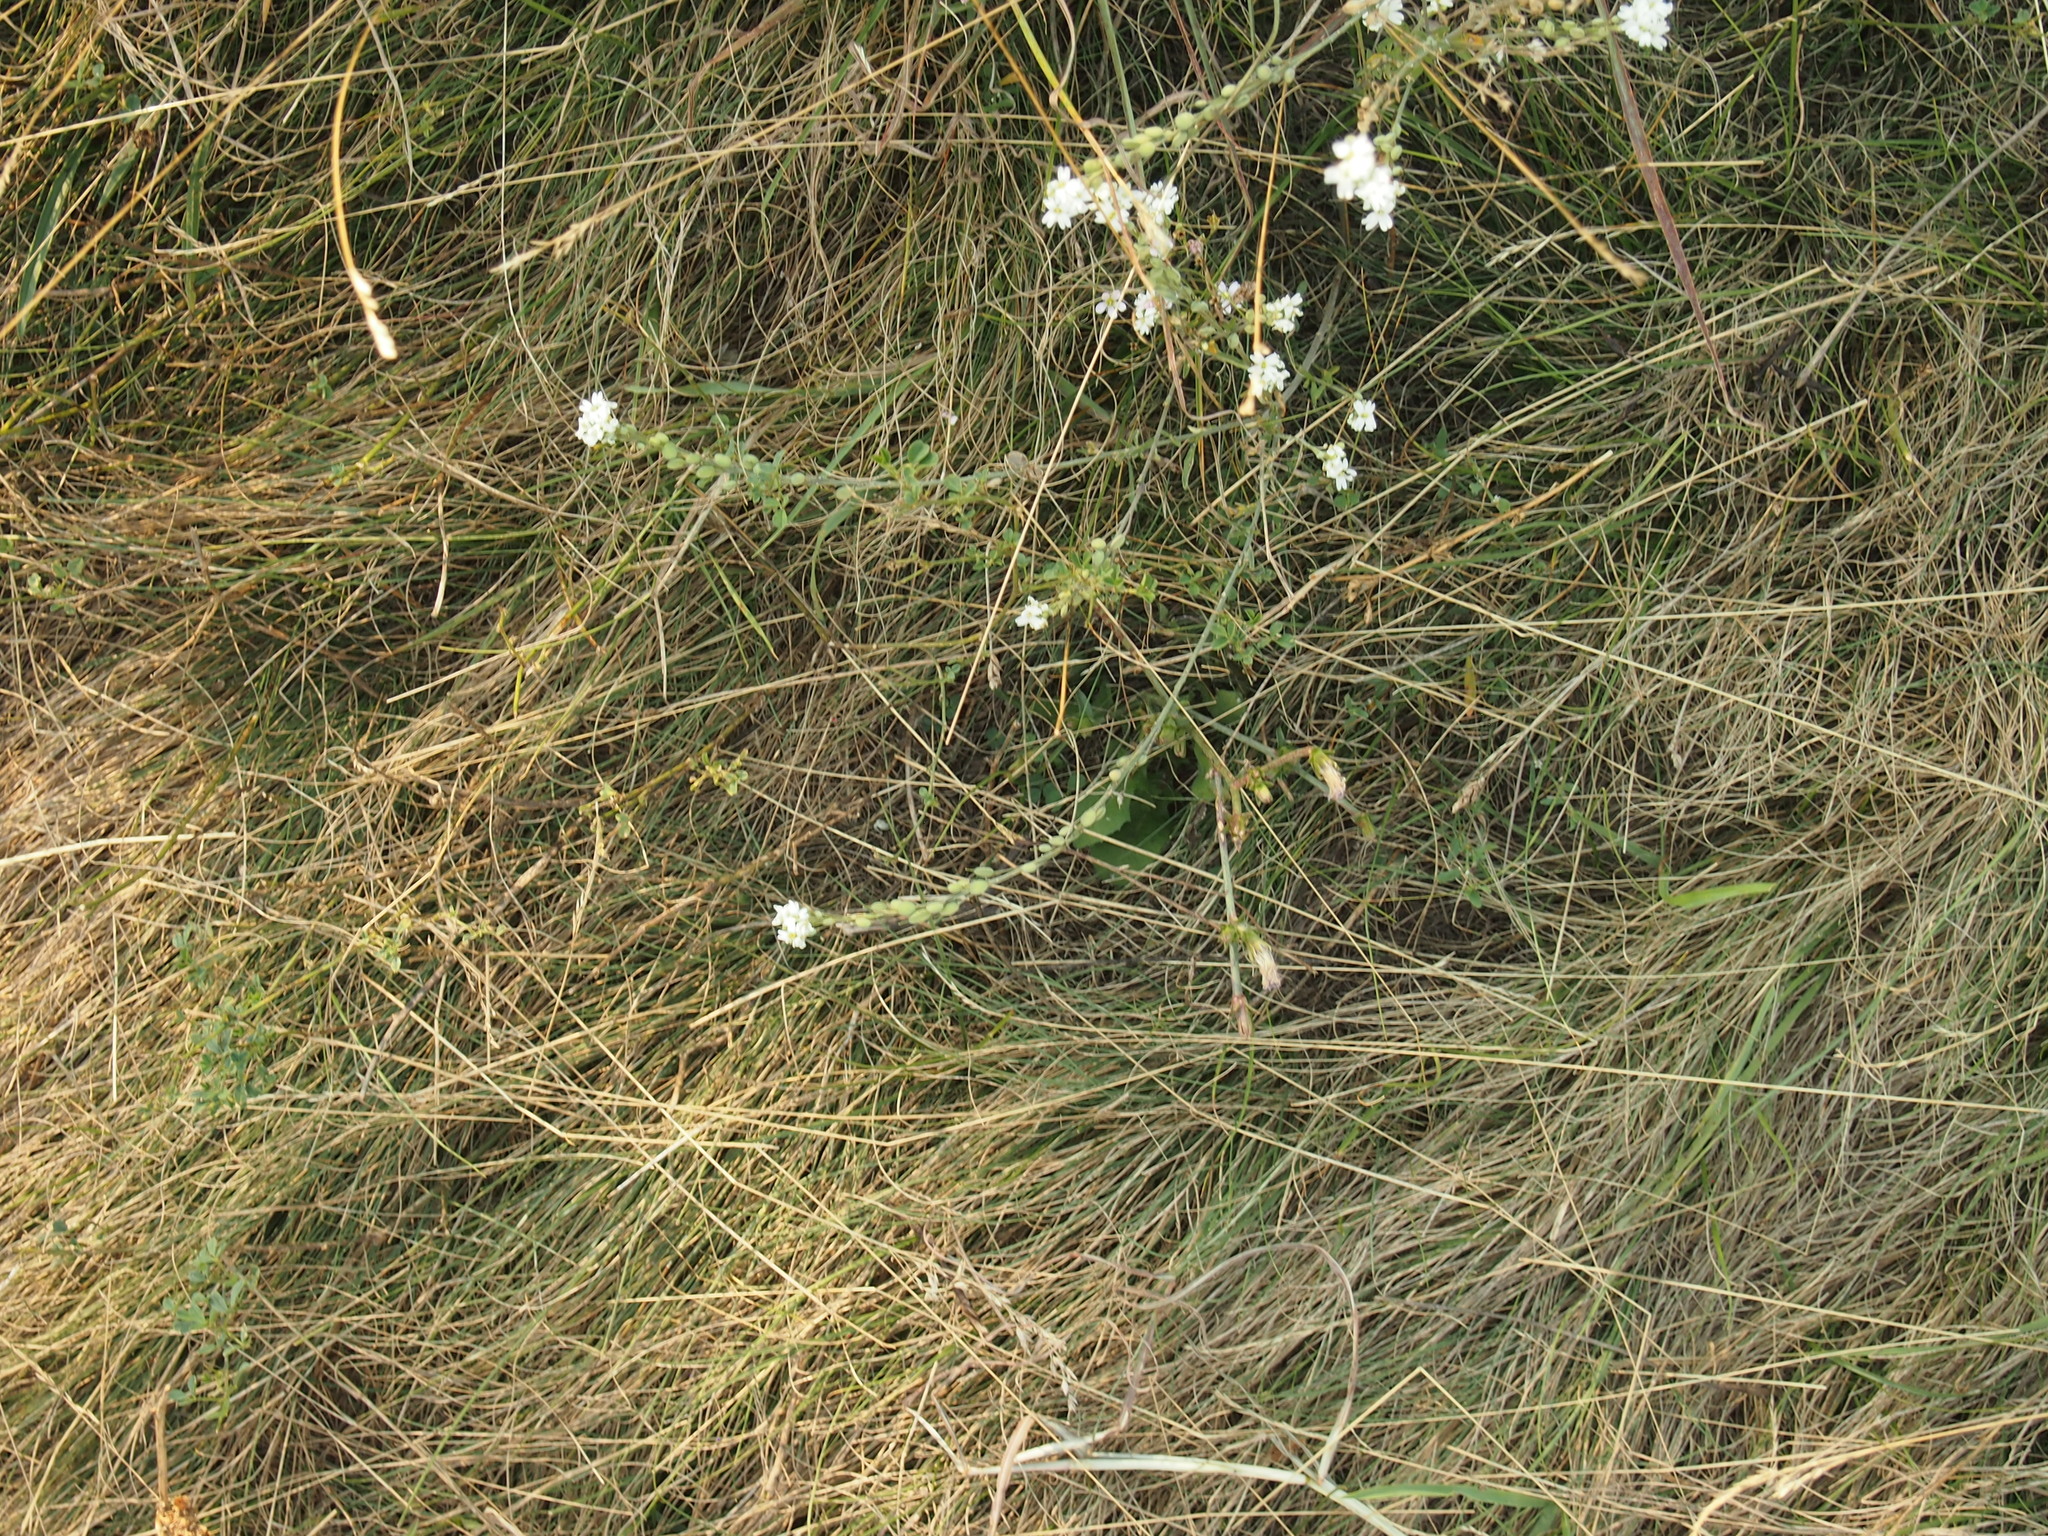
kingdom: Plantae
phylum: Tracheophyta
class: Magnoliopsida
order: Brassicales
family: Brassicaceae
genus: Berteroa
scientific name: Berteroa incana
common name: Hoary alison
